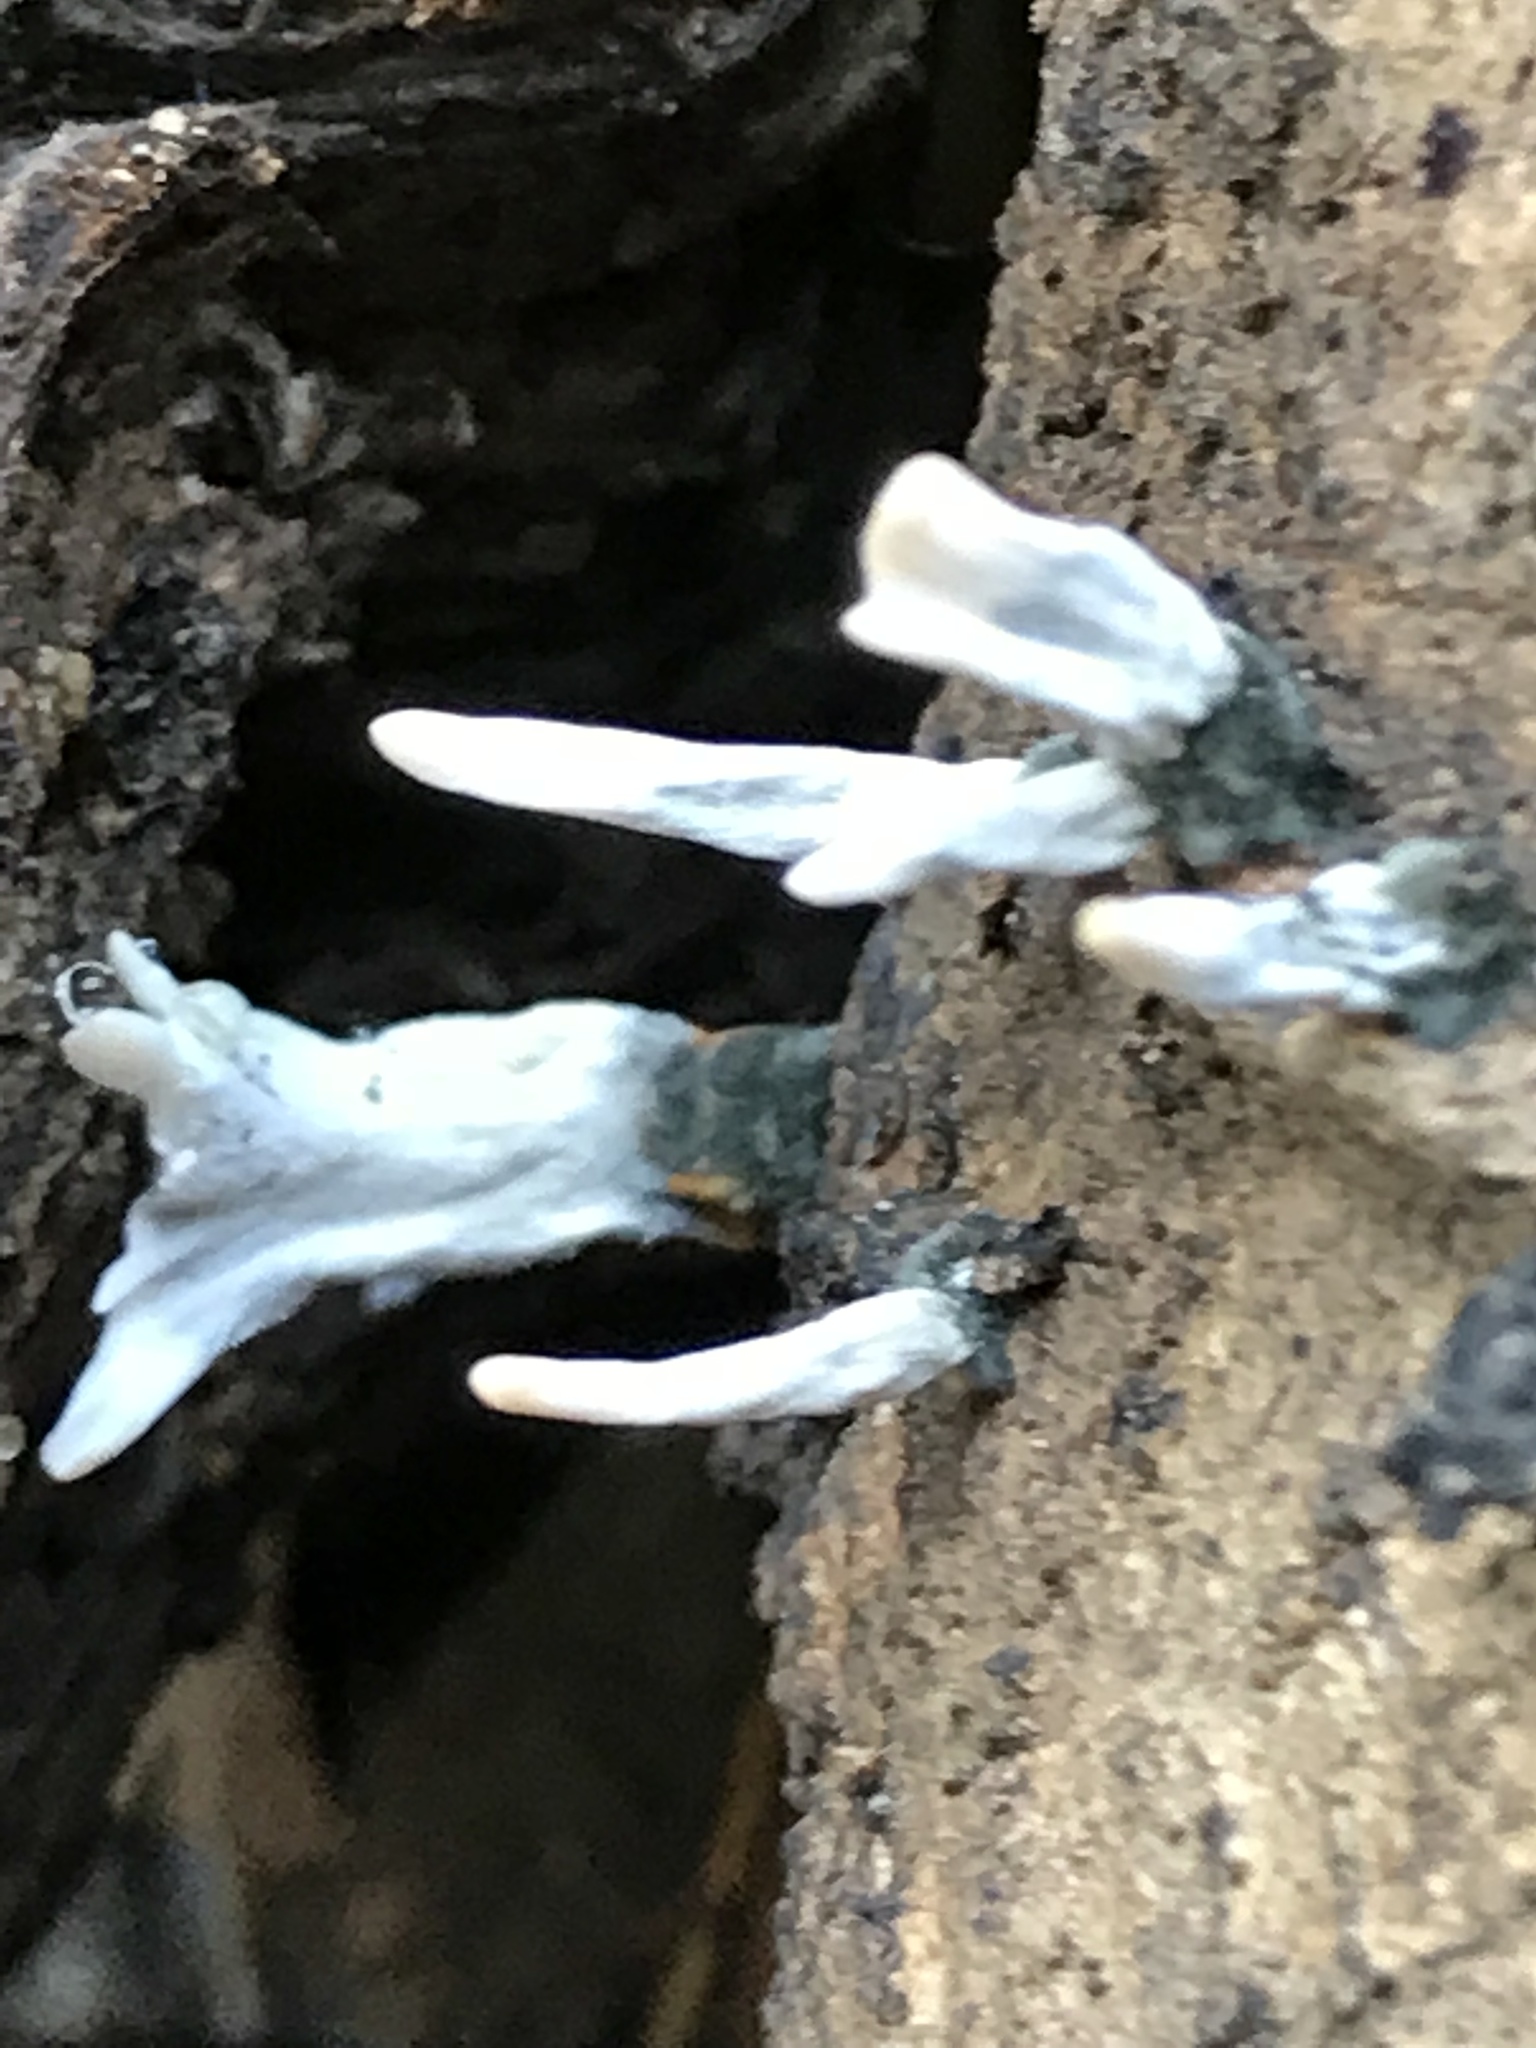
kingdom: Fungi
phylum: Ascomycota
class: Sordariomycetes
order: Xylariales
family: Xylariaceae
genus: Xylaria
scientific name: Xylaria hypoxylon
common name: Candle-snuff fungus
